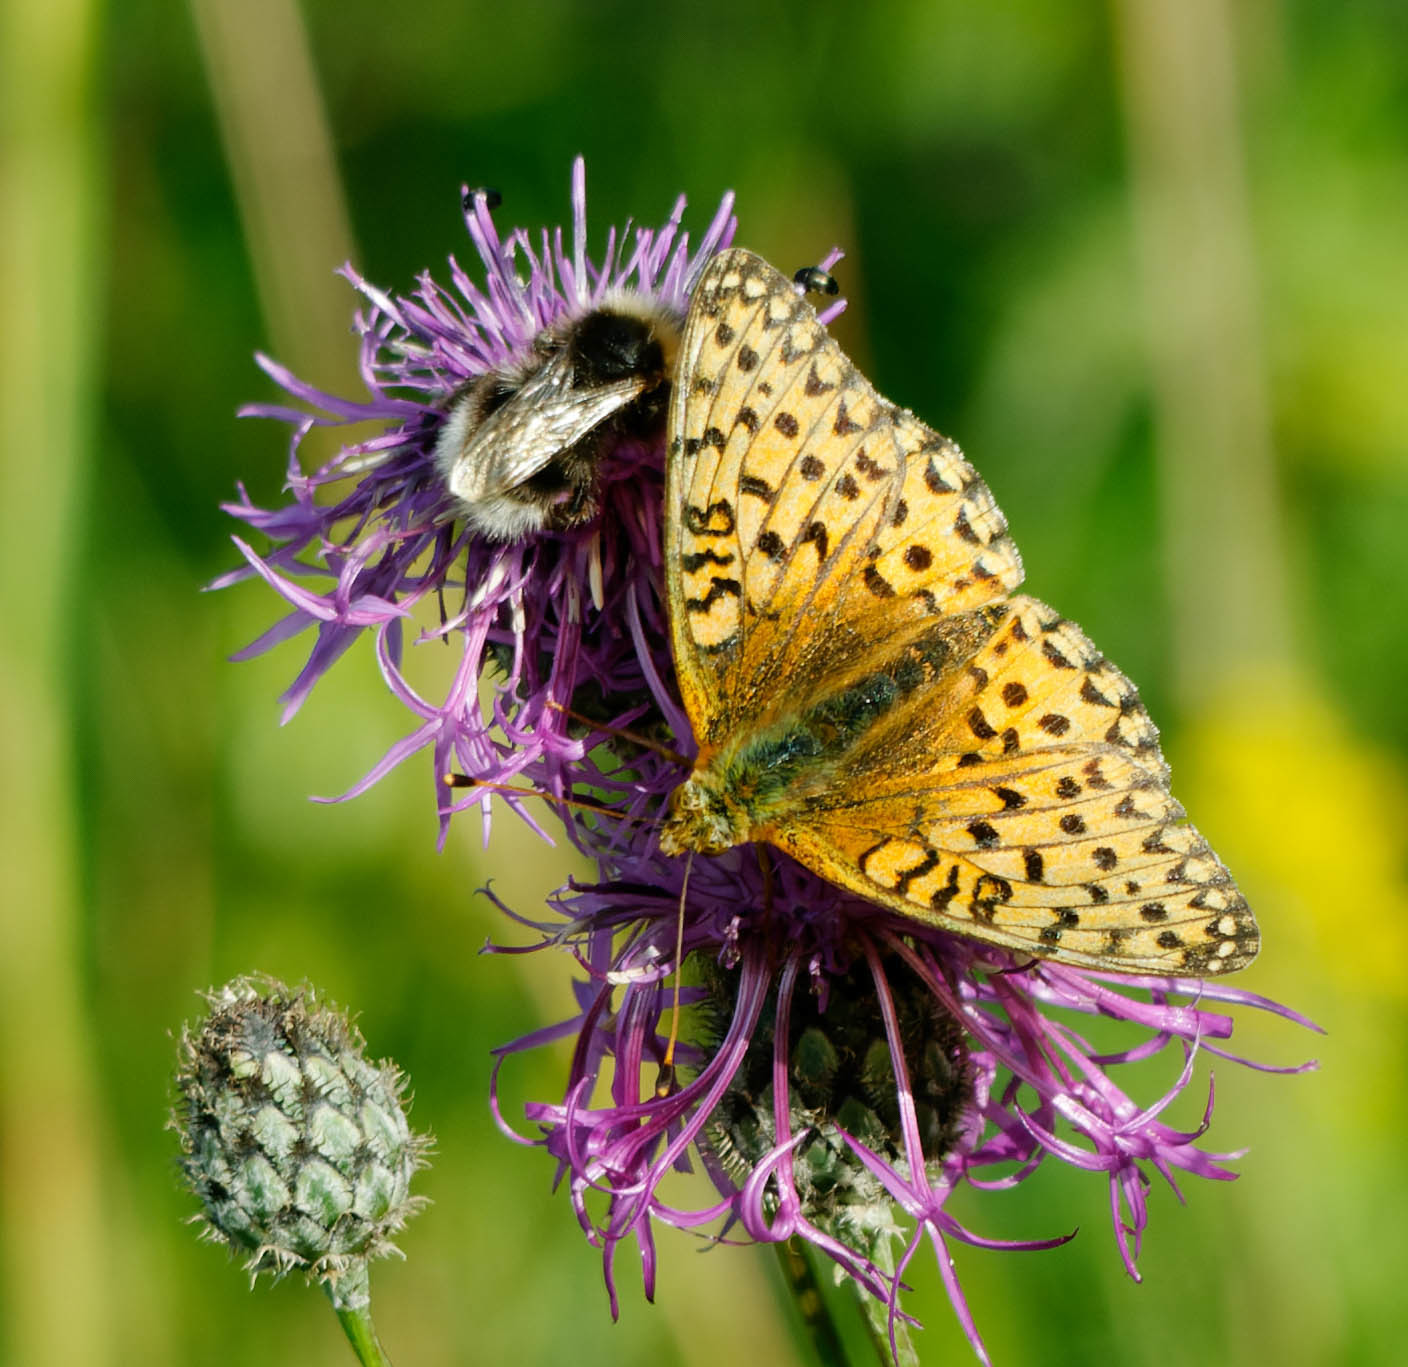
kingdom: Animalia
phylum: Arthropoda
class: Insecta
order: Lepidoptera
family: Nymphalidae
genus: Speyeria
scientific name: Speyeria aglaja
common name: Dark green fritillary
